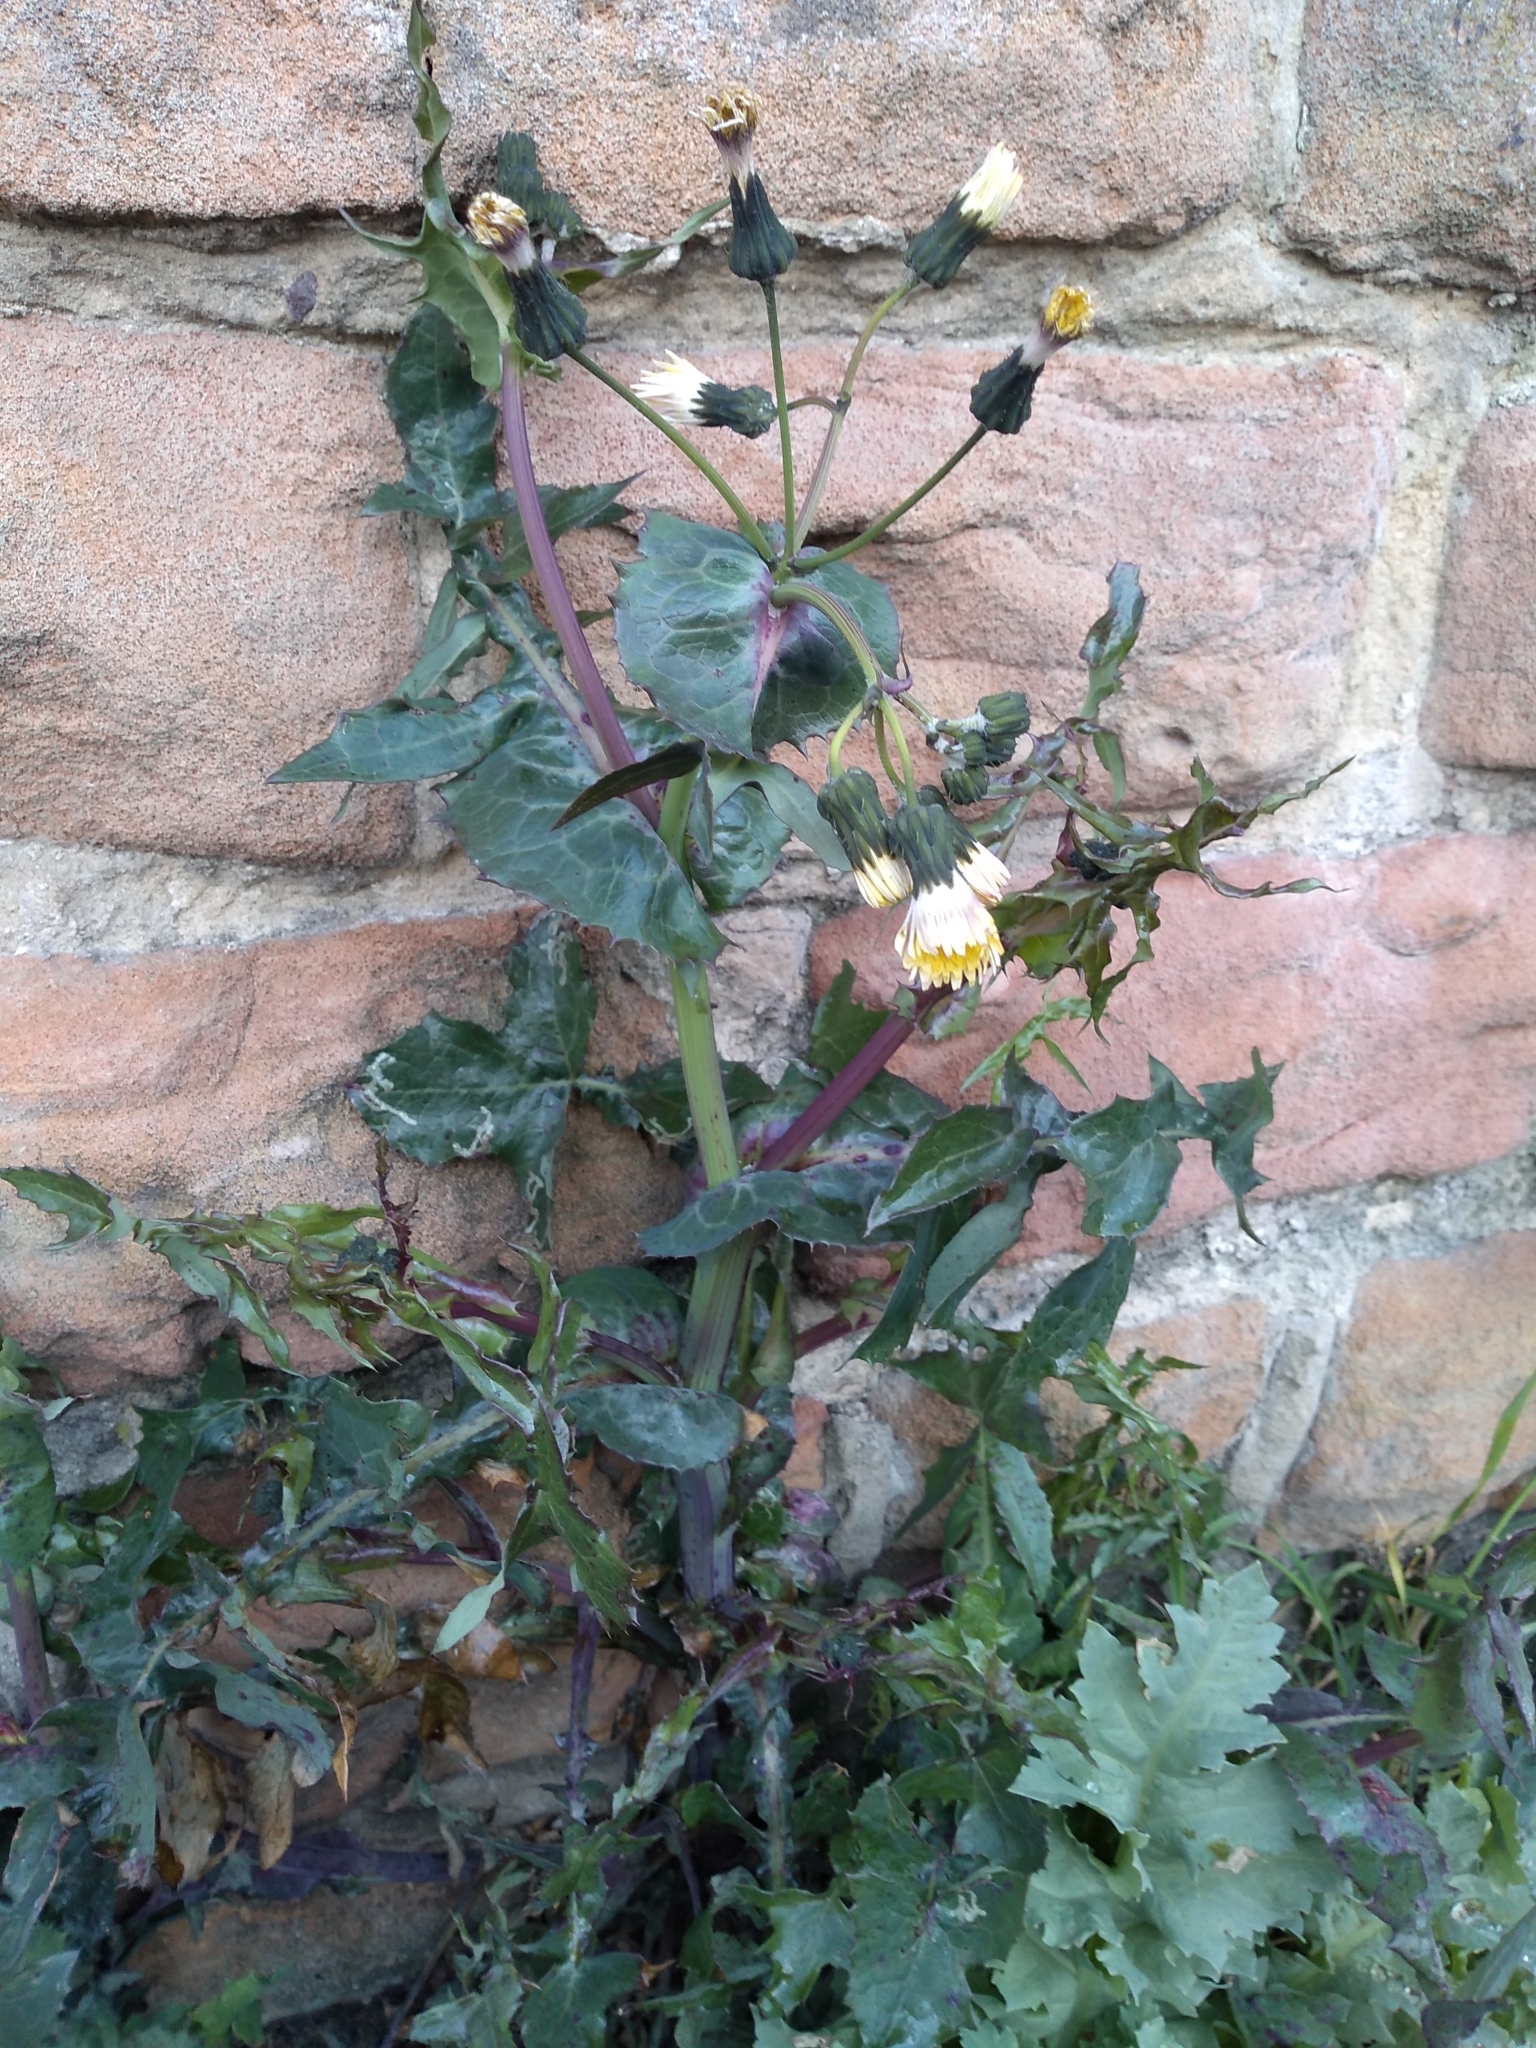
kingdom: Plantae
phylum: Tracheophyta
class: Magnoliopsida
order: Asterales
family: Asteraceae
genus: Sonchus
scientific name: Sonchus oleraceus
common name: Common sowthistle
